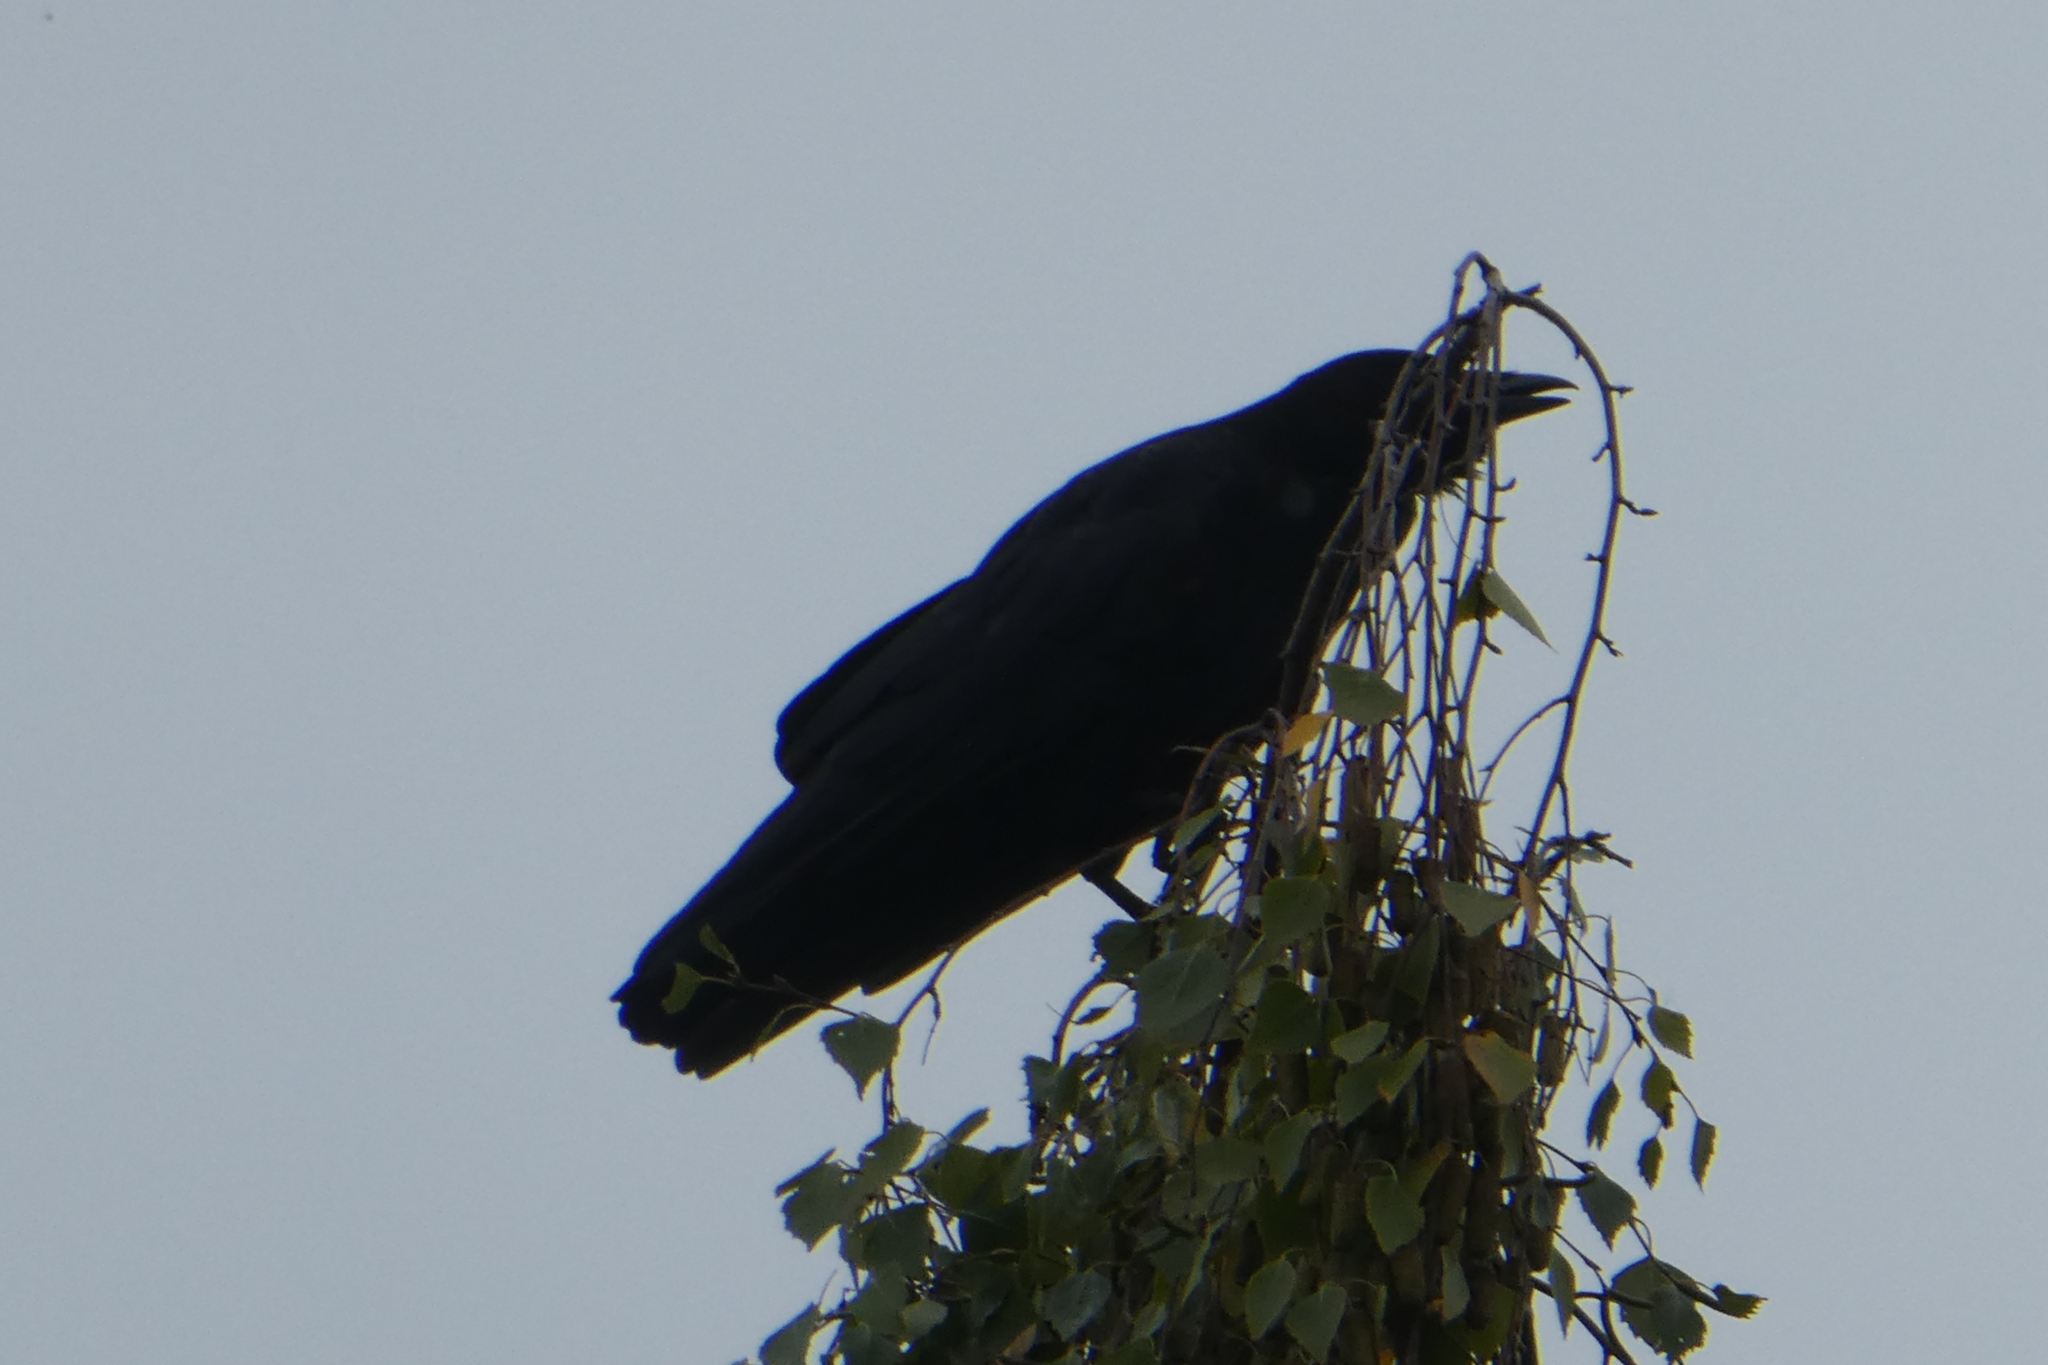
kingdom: Animalia
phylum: Chordata
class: Aves
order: Passeriformes
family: Corvidae
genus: Corvus
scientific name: Corvus brachyrhynchos
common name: American crow
